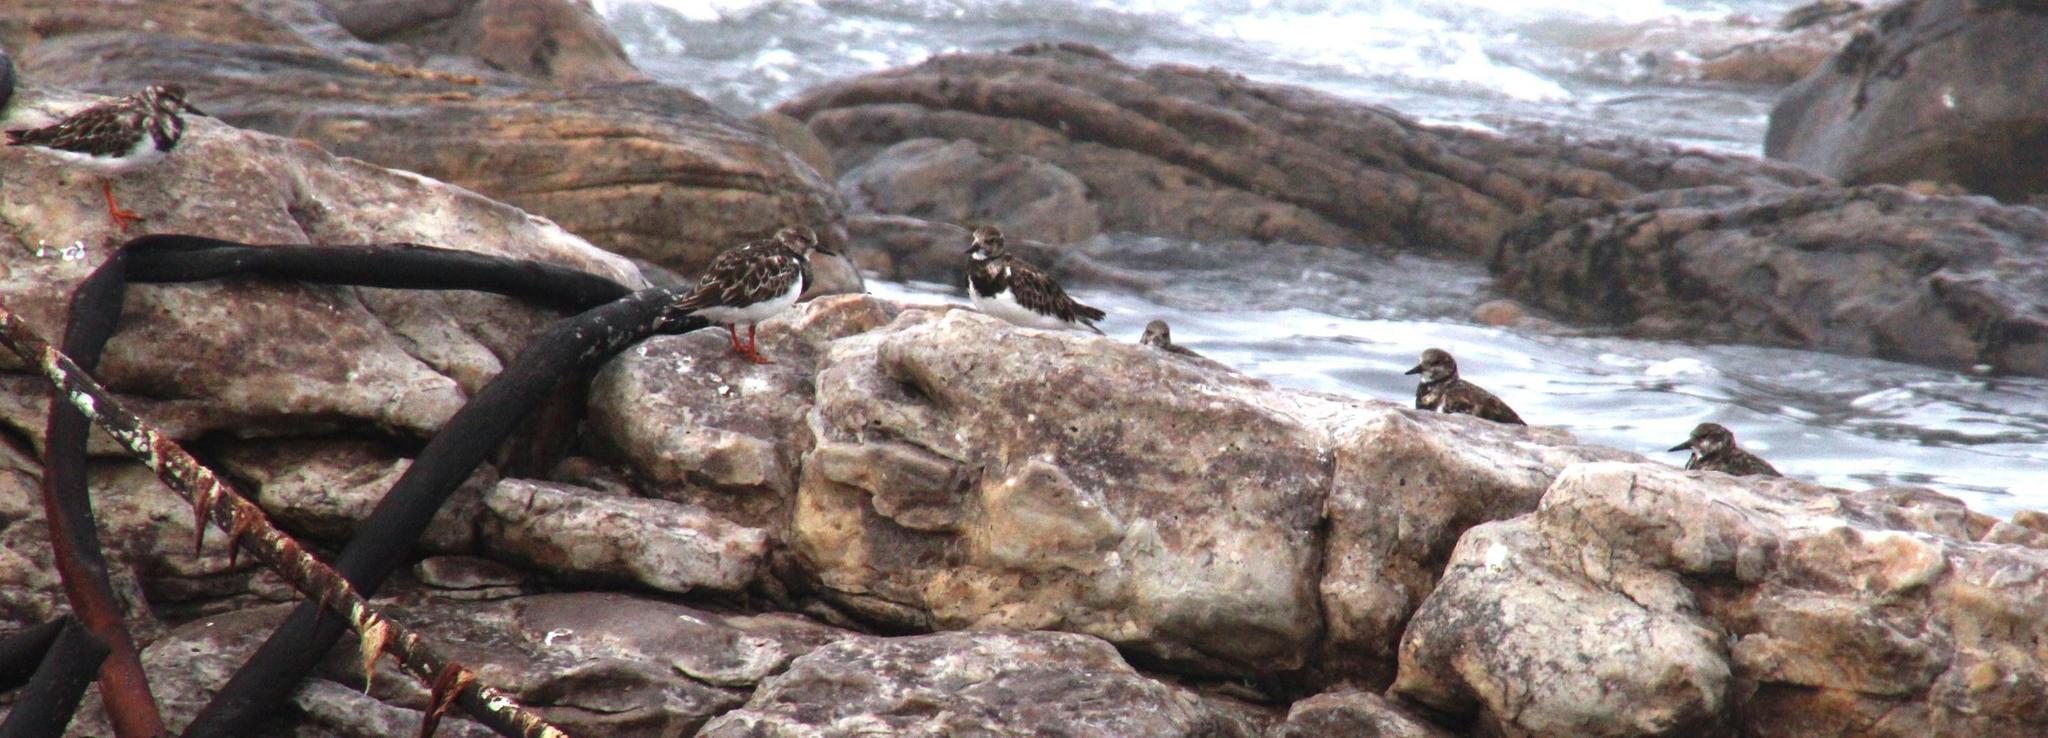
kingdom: Animalia
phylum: Chordata
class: Aves
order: Charadriiformes
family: Scolopacidae
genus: Arenaria
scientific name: Arenaria interpres
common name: Ruddy turnstone
